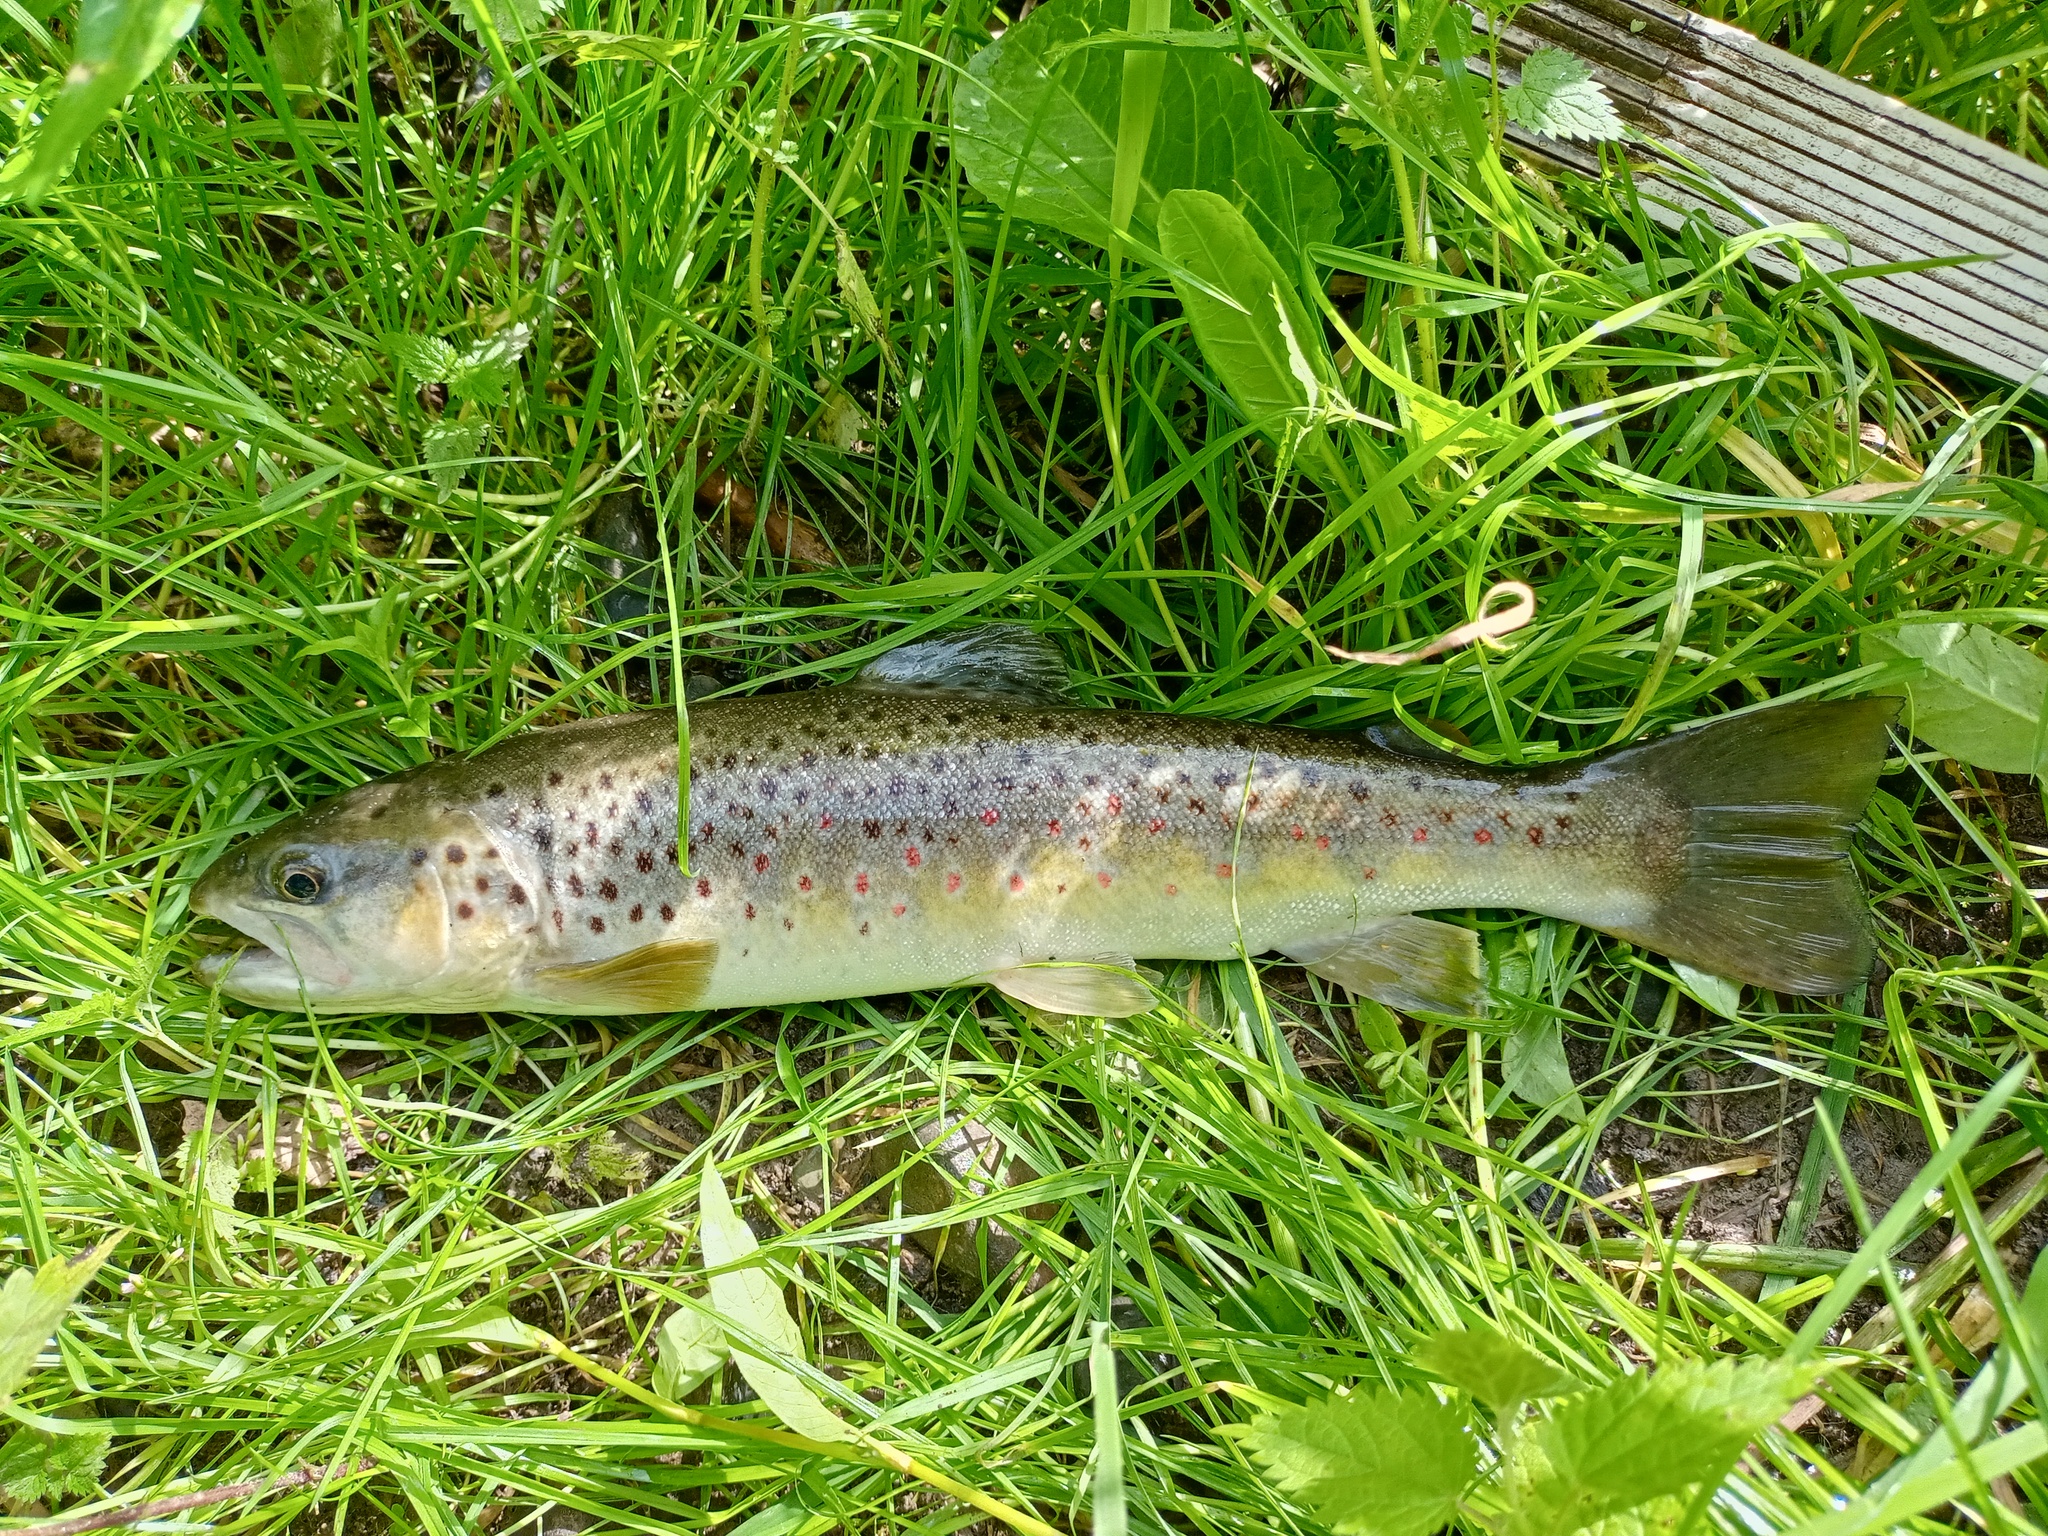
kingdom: Animalia
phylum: Chordata
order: Salmoniformes
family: Salmonidae
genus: Salmo
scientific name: Salmo trutta
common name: Brown trout
